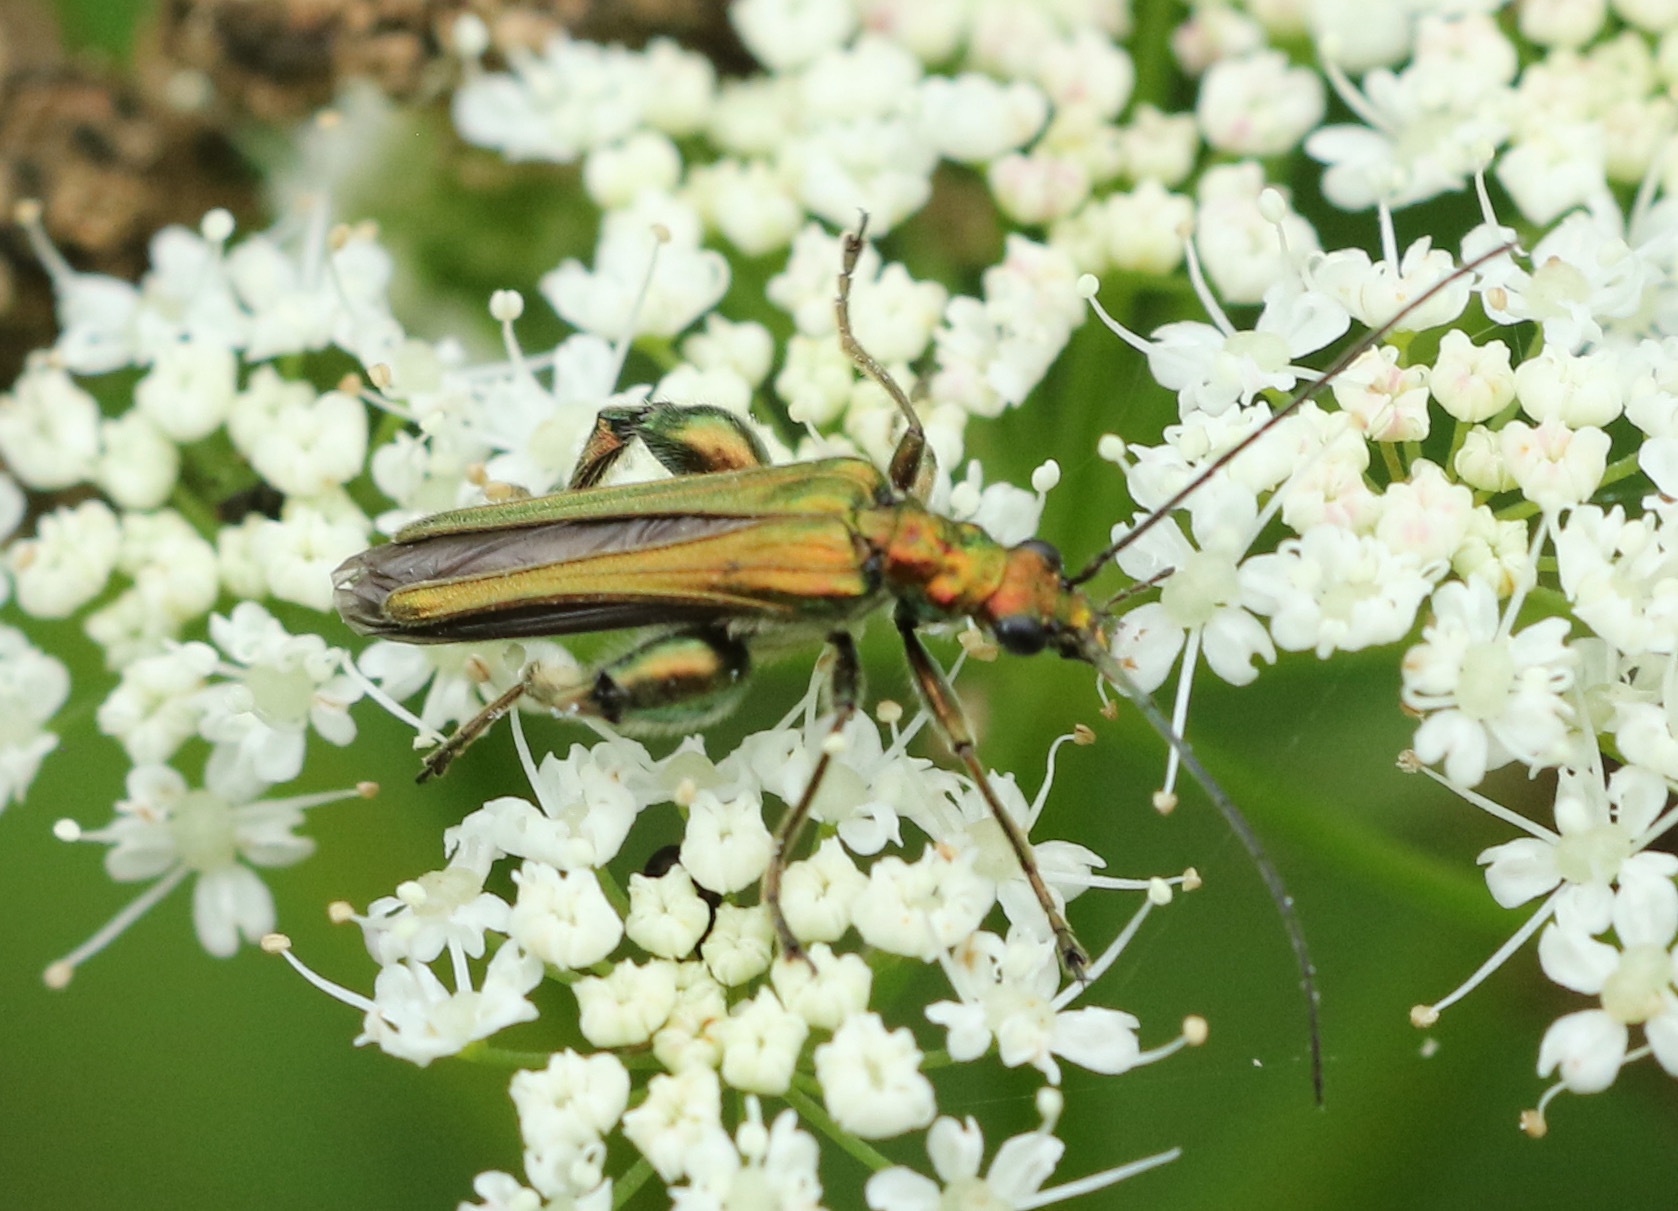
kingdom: Animalia
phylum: Arthropoda
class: Insecta
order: Coleoptera
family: Oedemeridae
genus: Oedemera
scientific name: Oedemera nobilis
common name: Swollen-thighed beetle
